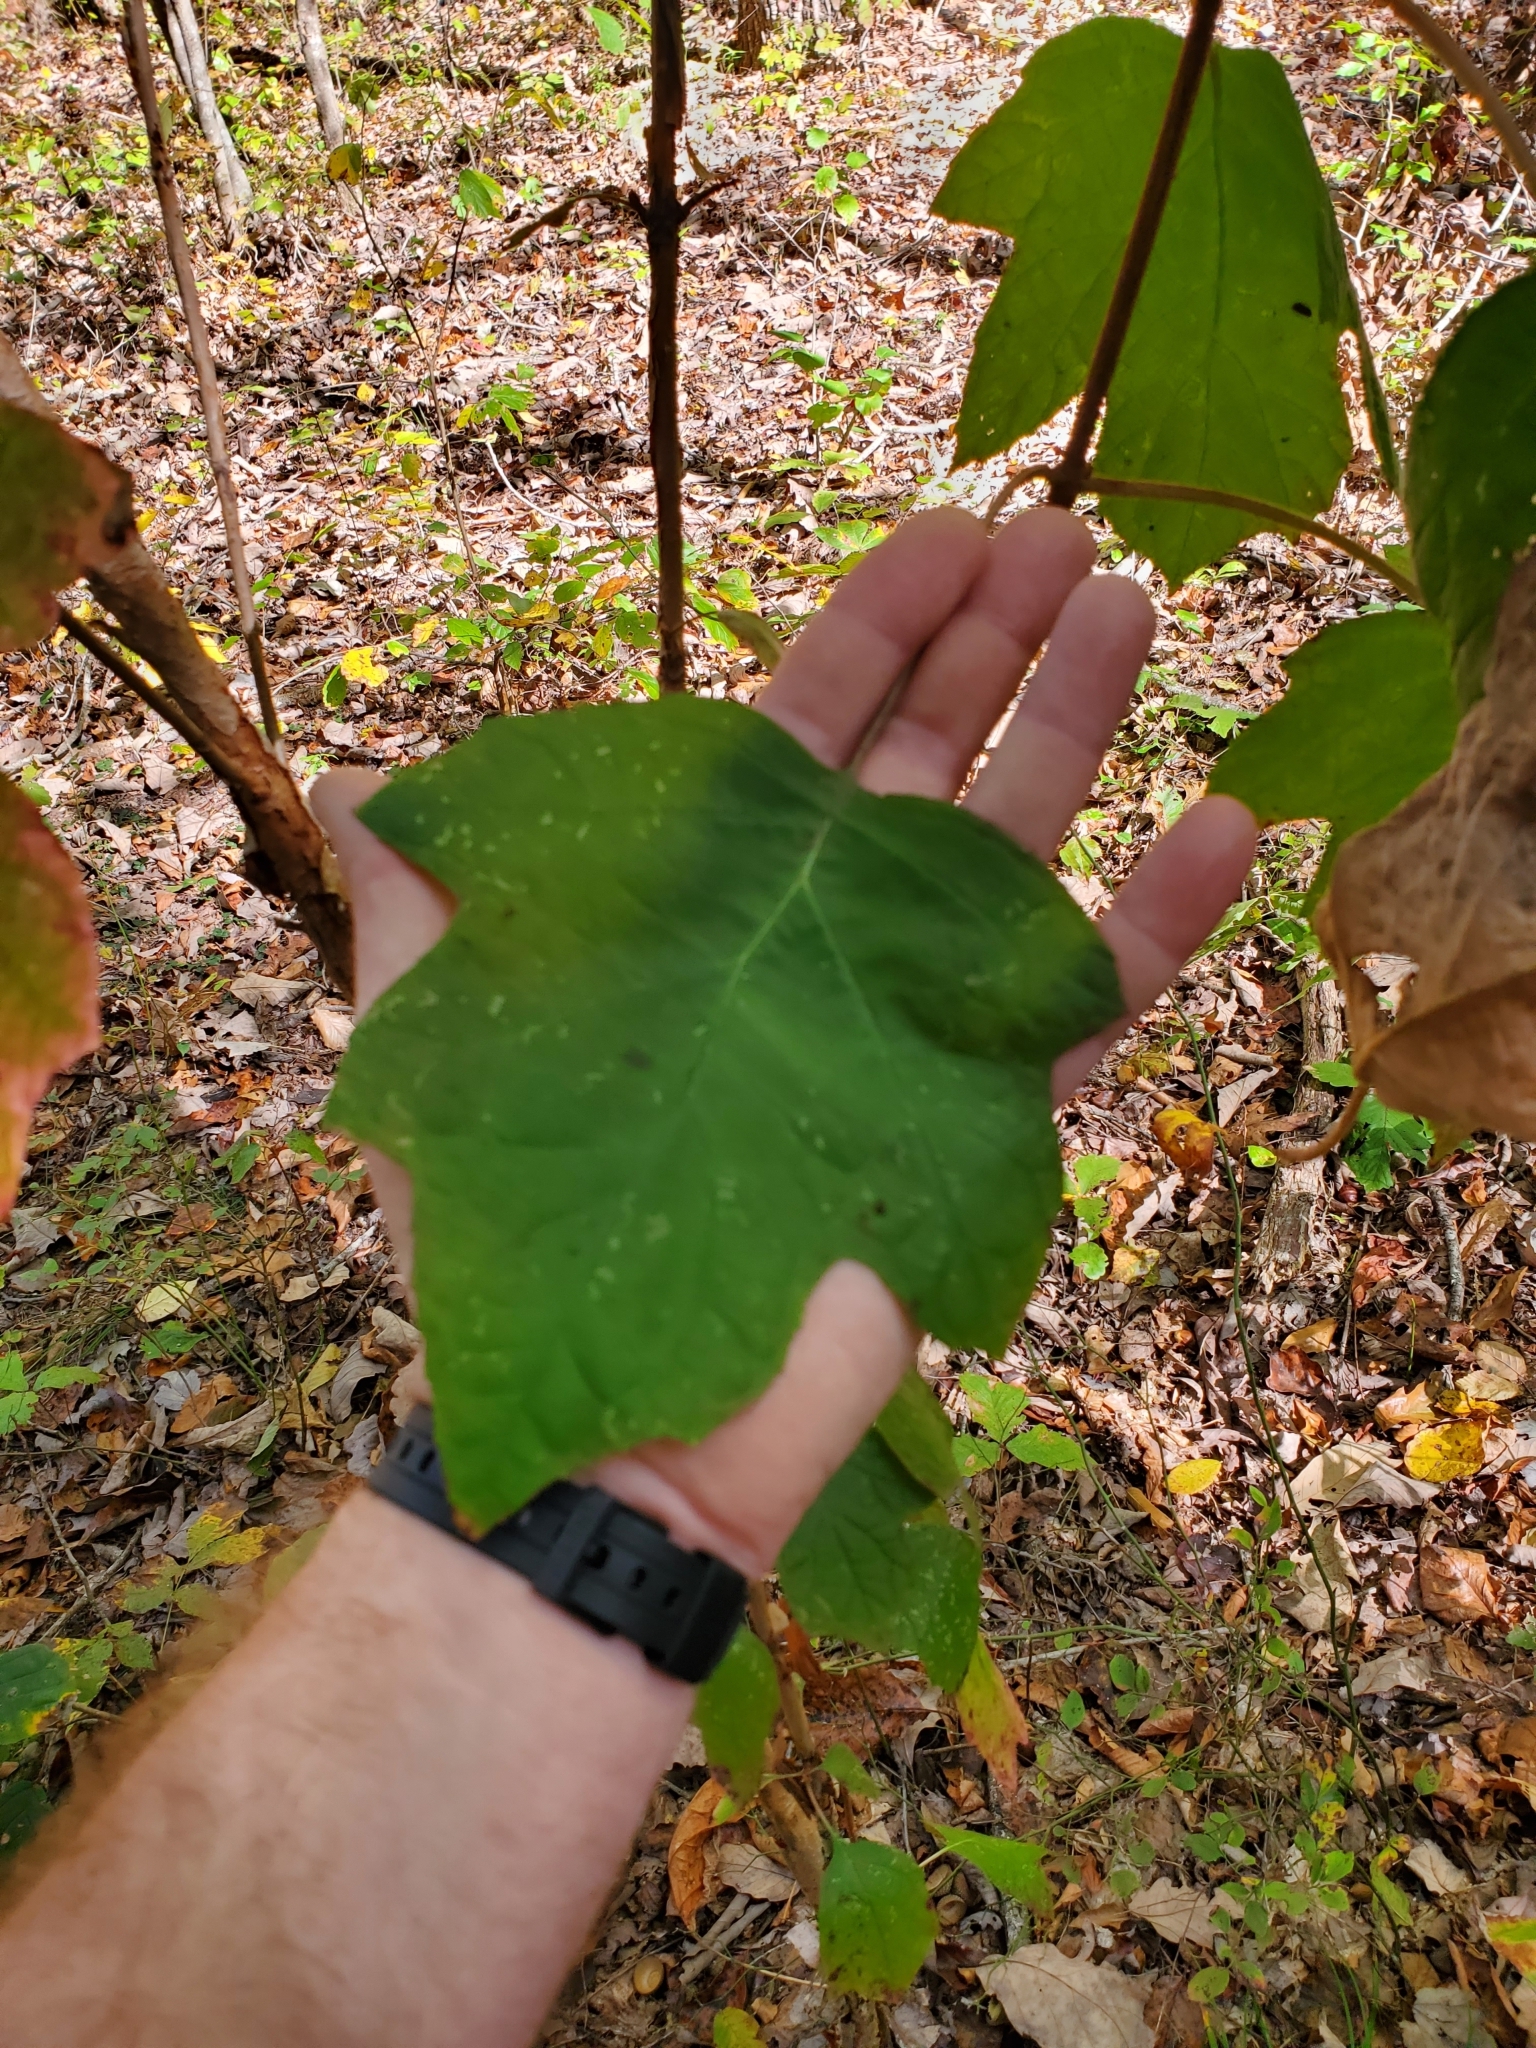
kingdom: Plantae
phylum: Tracheophyta
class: Magnoliopsida
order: Cornales
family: Hydrangeaceae
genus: Hydrangea
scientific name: Hydrangea quercifolia
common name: Oak-leaf hydrangea
